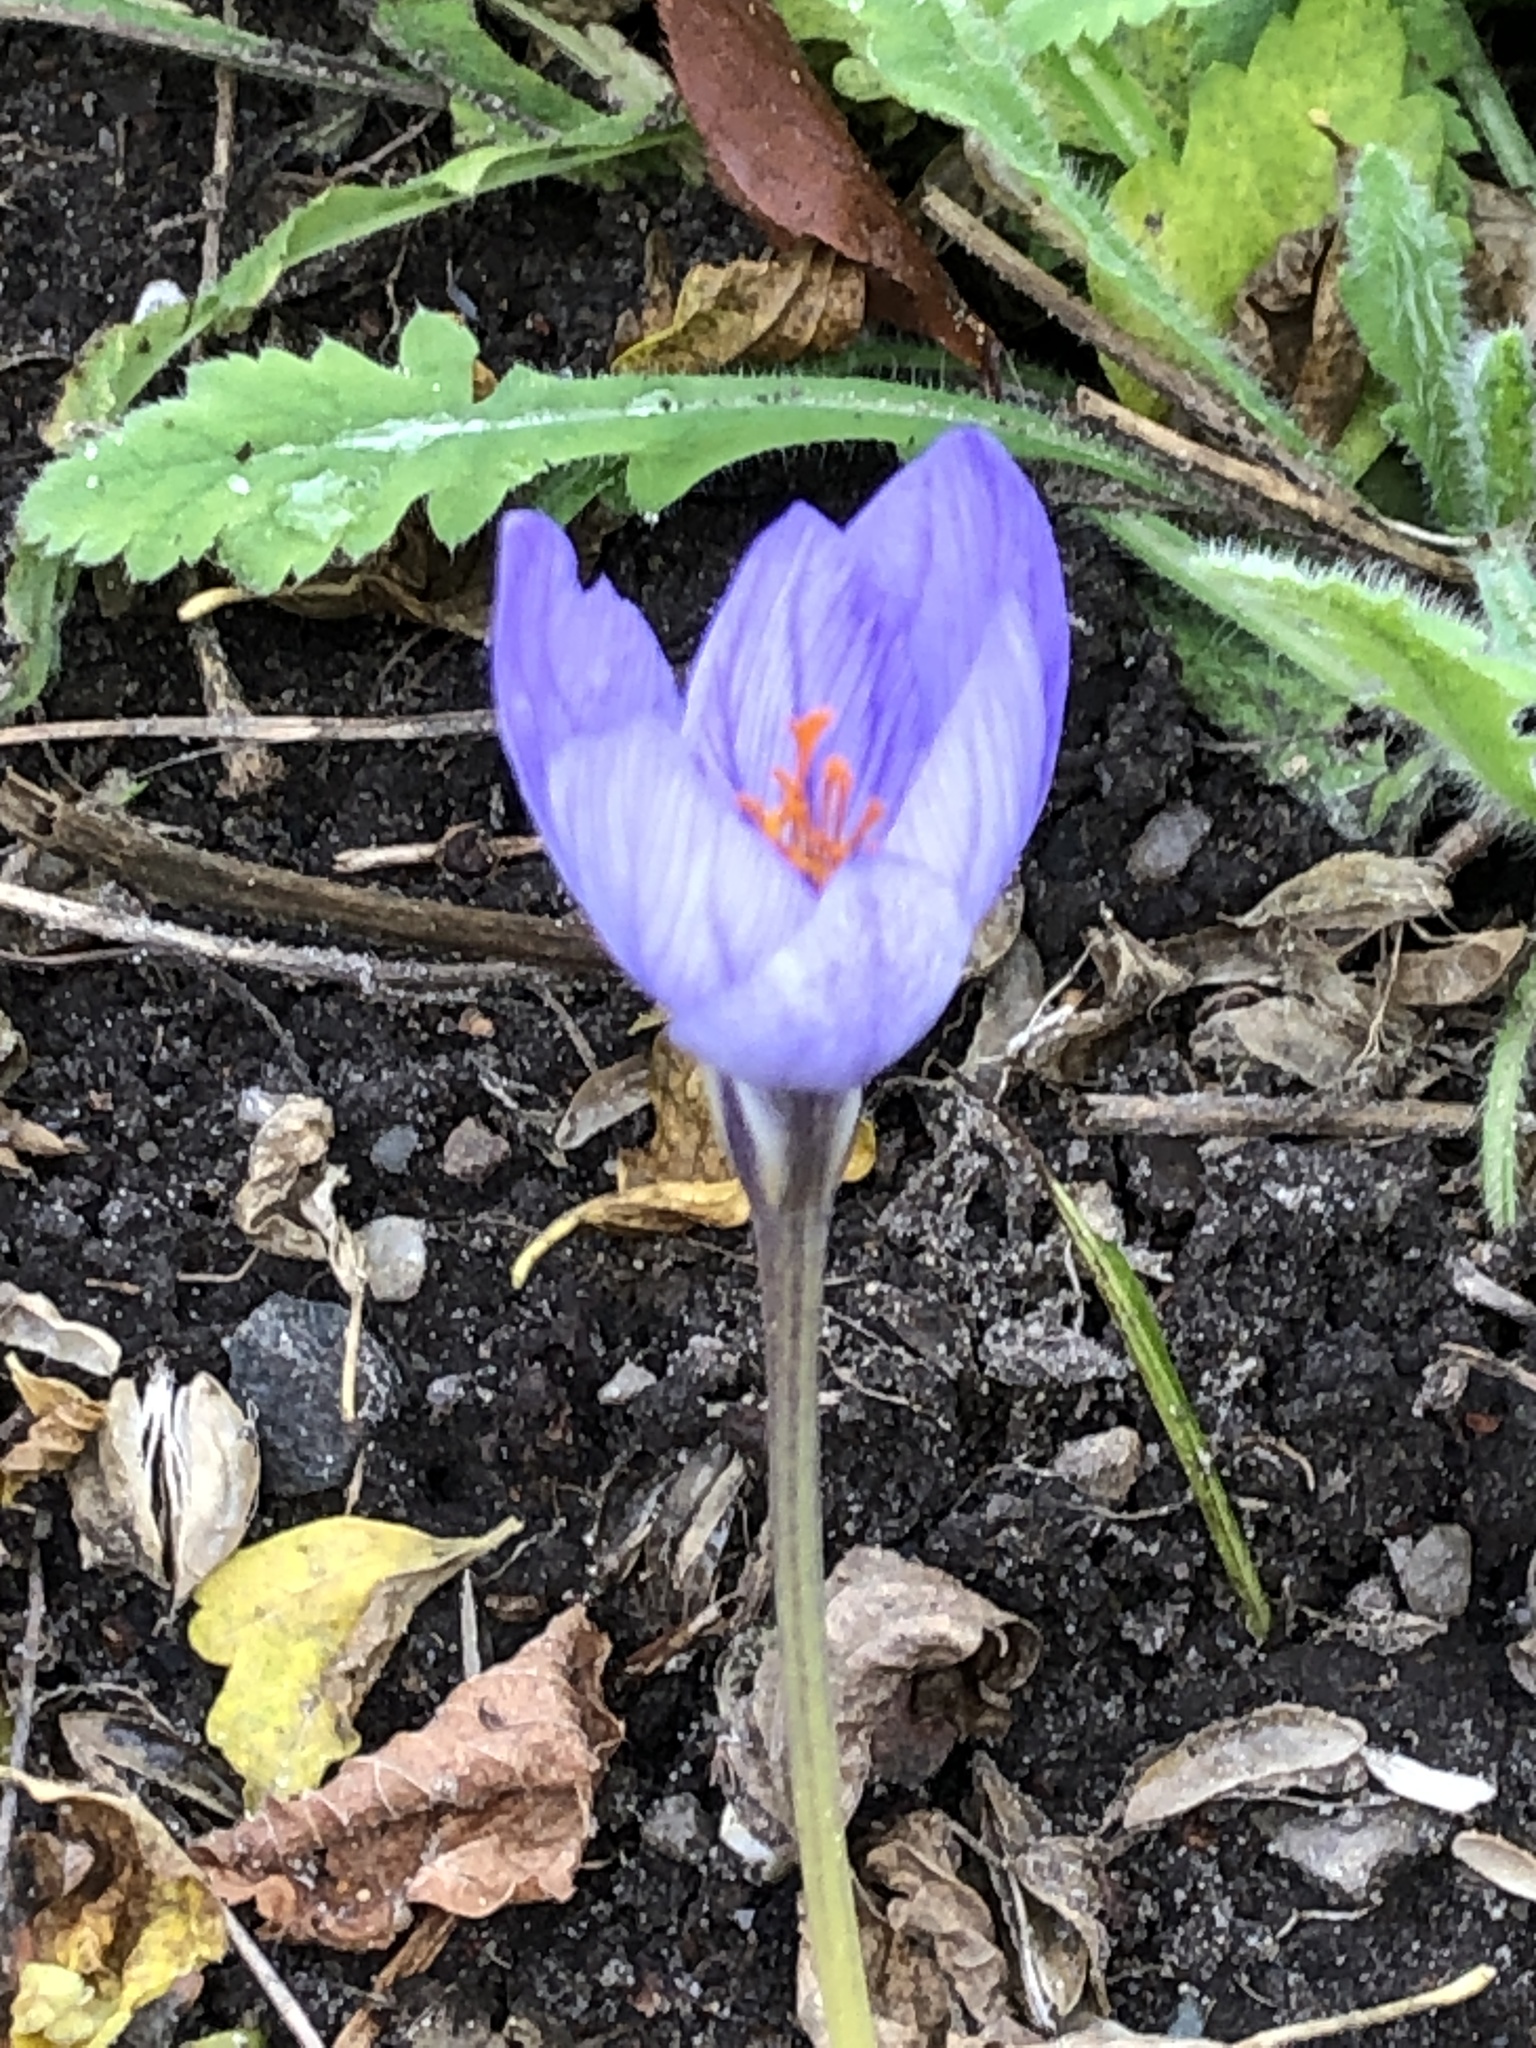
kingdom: Plantae
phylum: Tracheophyta
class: Liliopsida
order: Asparagales
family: Iridaceae
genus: Crocus
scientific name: Crocus speciosus
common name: Bieberstein's crocus
